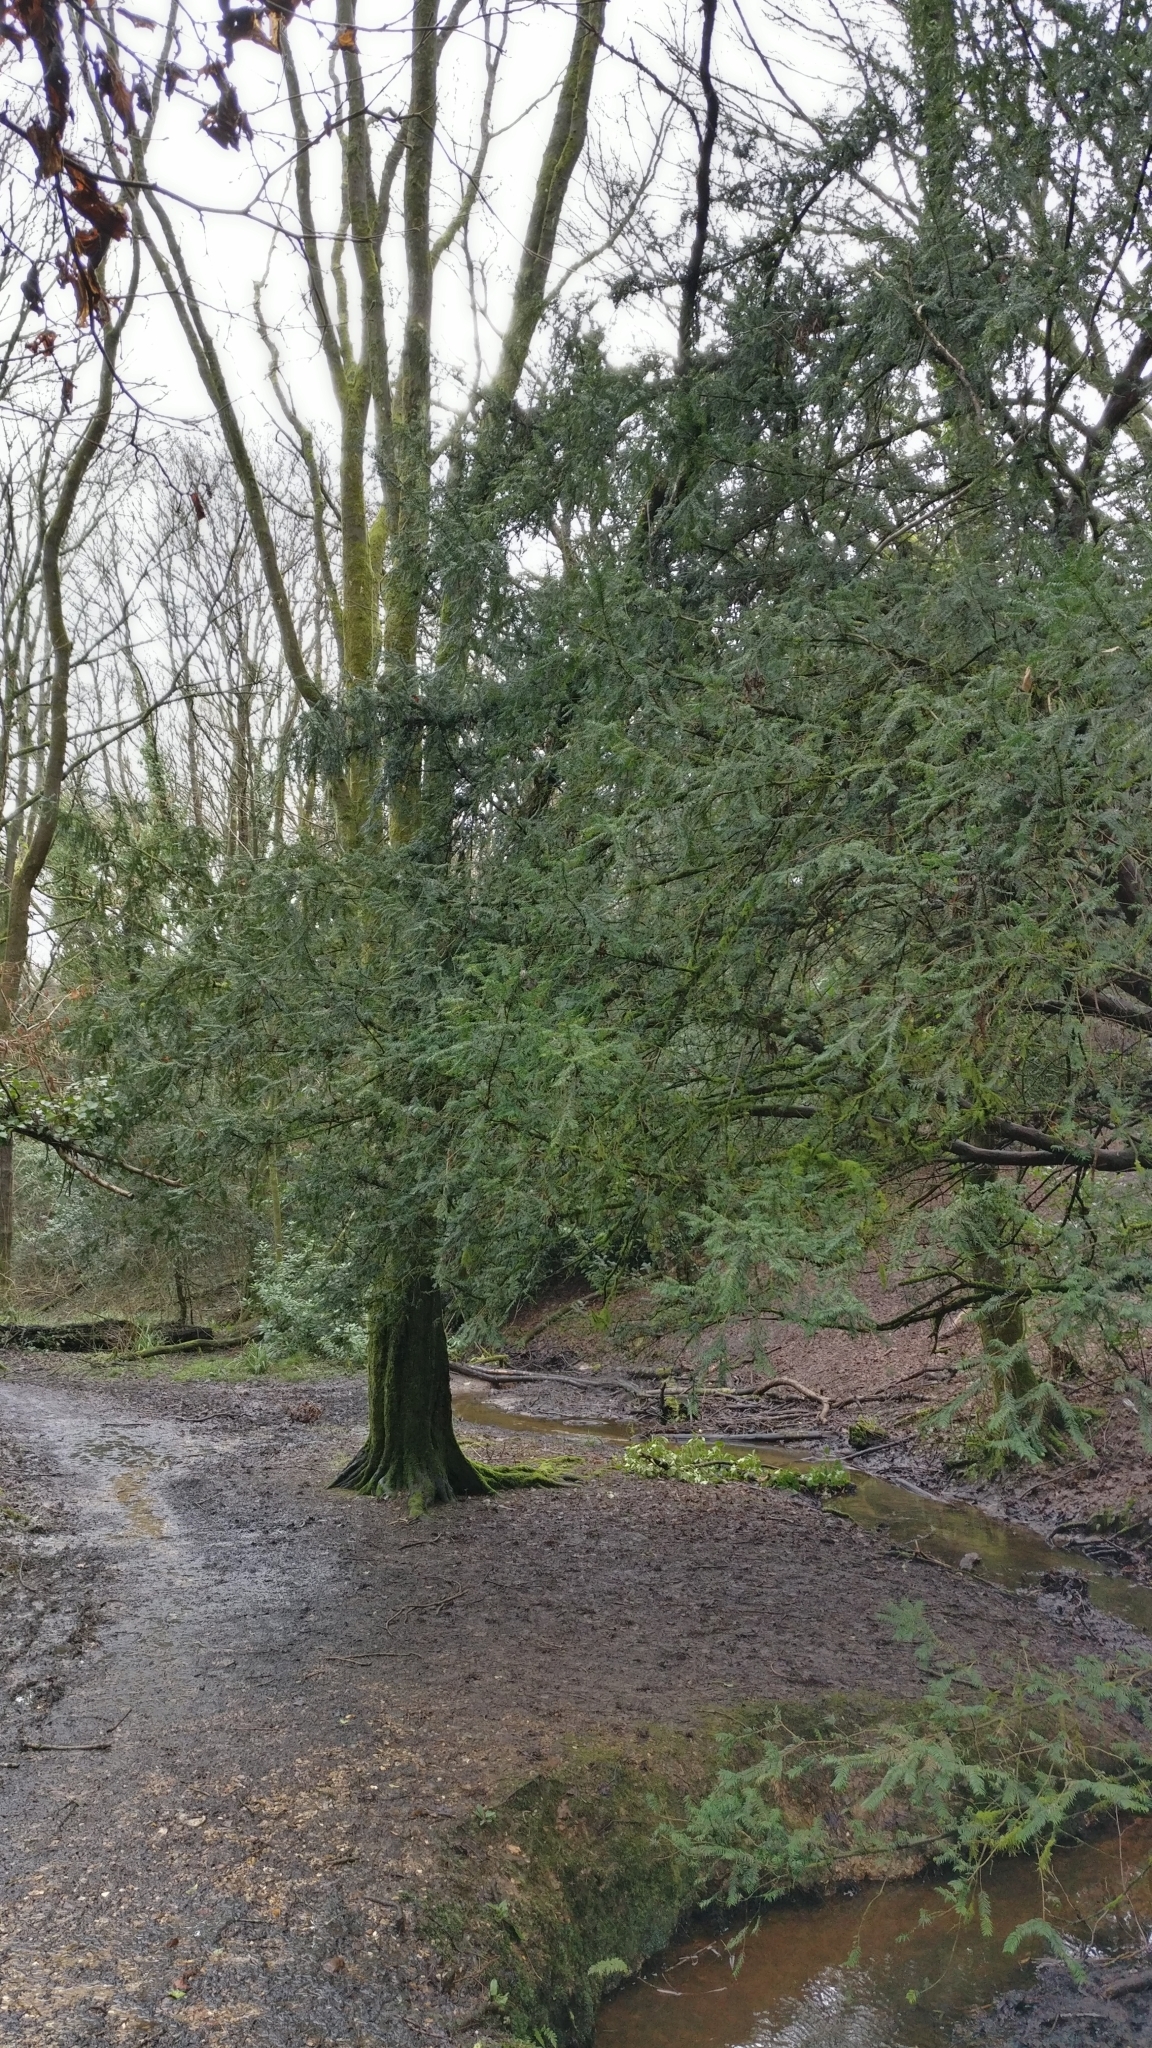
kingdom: Plantae
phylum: Tracheophyta
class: Pinopsida
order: Pinales
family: Taxaceae
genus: Taxus
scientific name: Taxus baccata
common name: Yew
